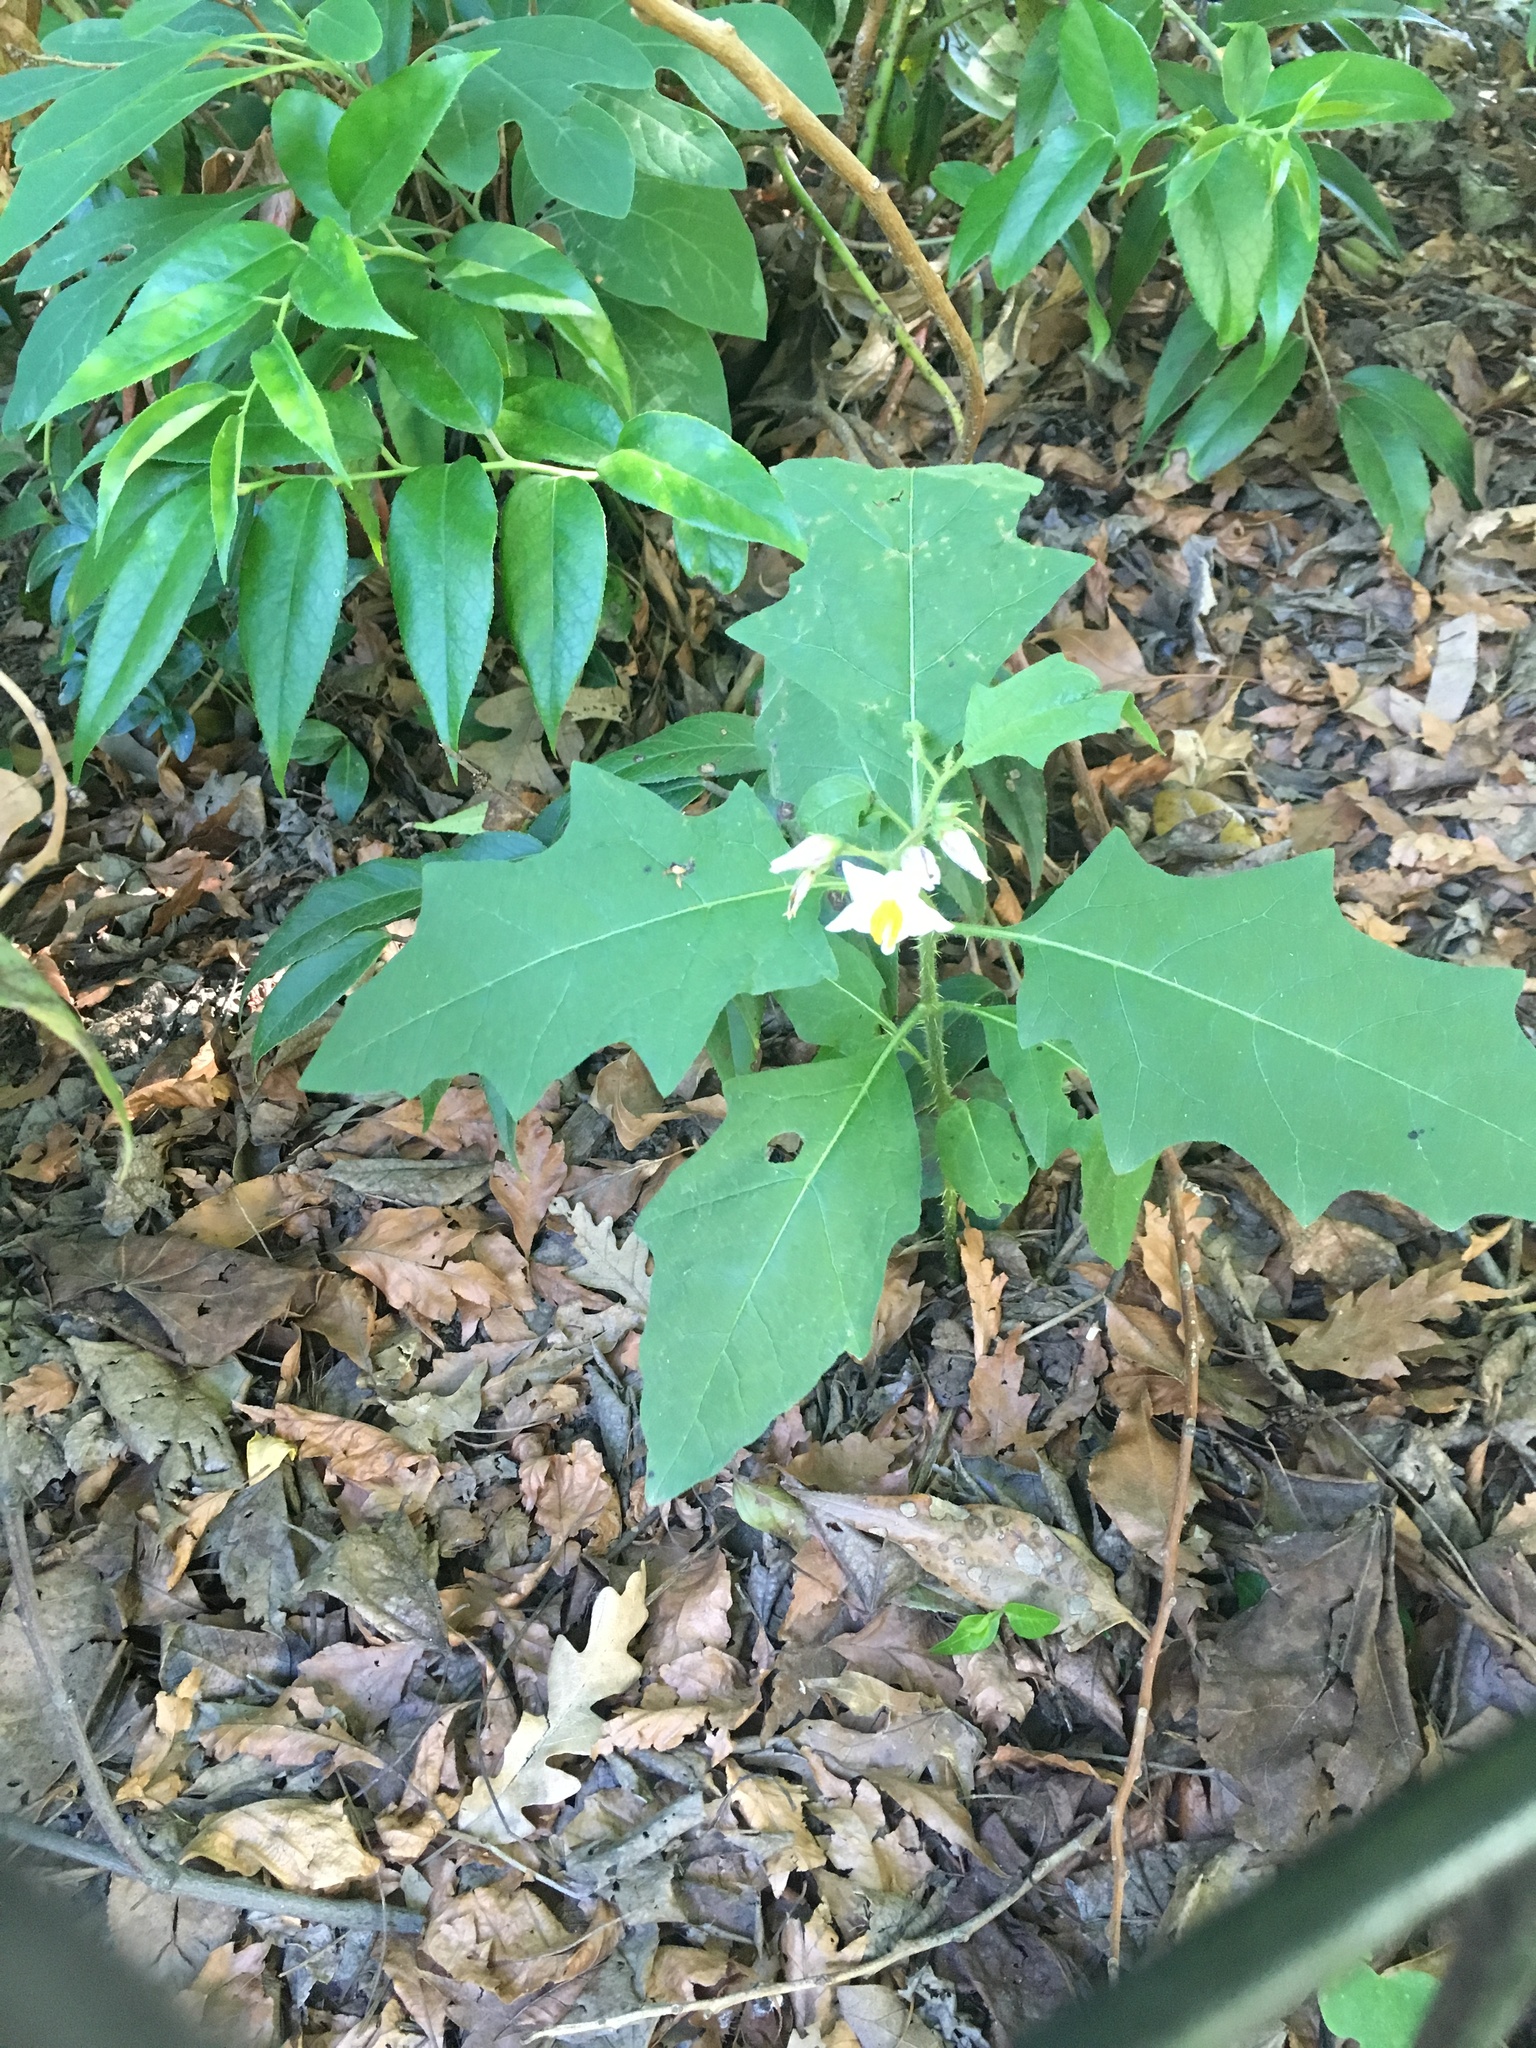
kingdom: Plantae
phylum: Tracheophyta
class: Magnoliopsida
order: Solanales
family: Solanaceae
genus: Solanum
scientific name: Solanum carolinense
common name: Horse-nettle
